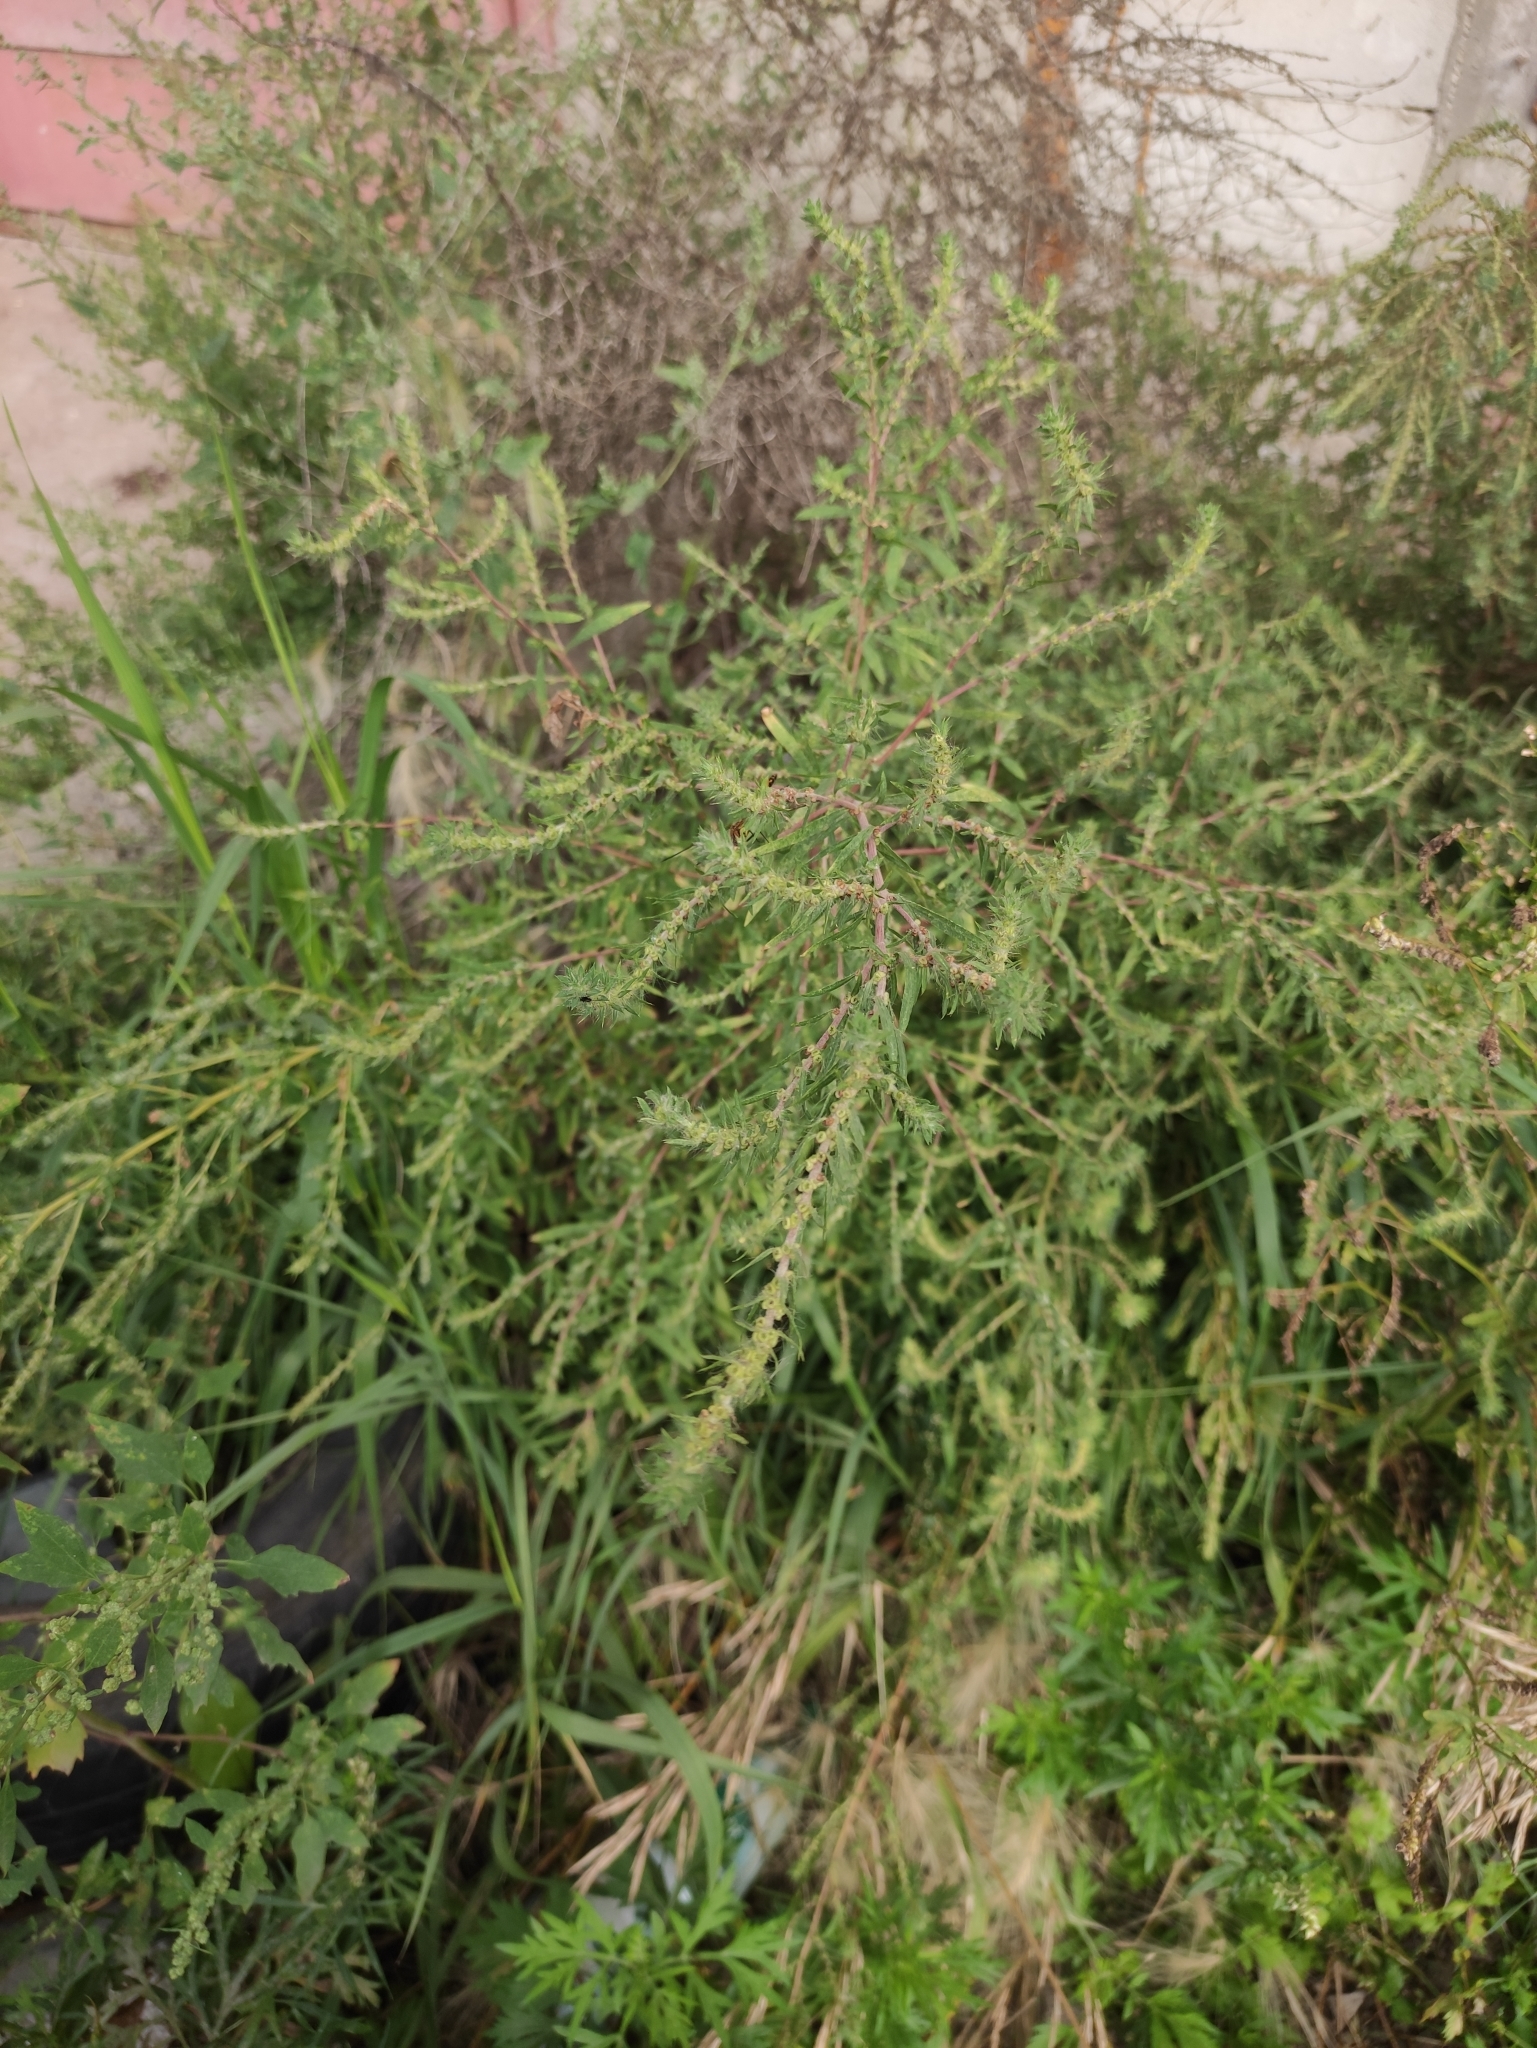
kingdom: Plantae
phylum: Tracheophyta
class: Magnoliopsida
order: Caryophyllales
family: Amaranthaceae
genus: Bassia
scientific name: Bassia scoparia
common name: Belvedere
